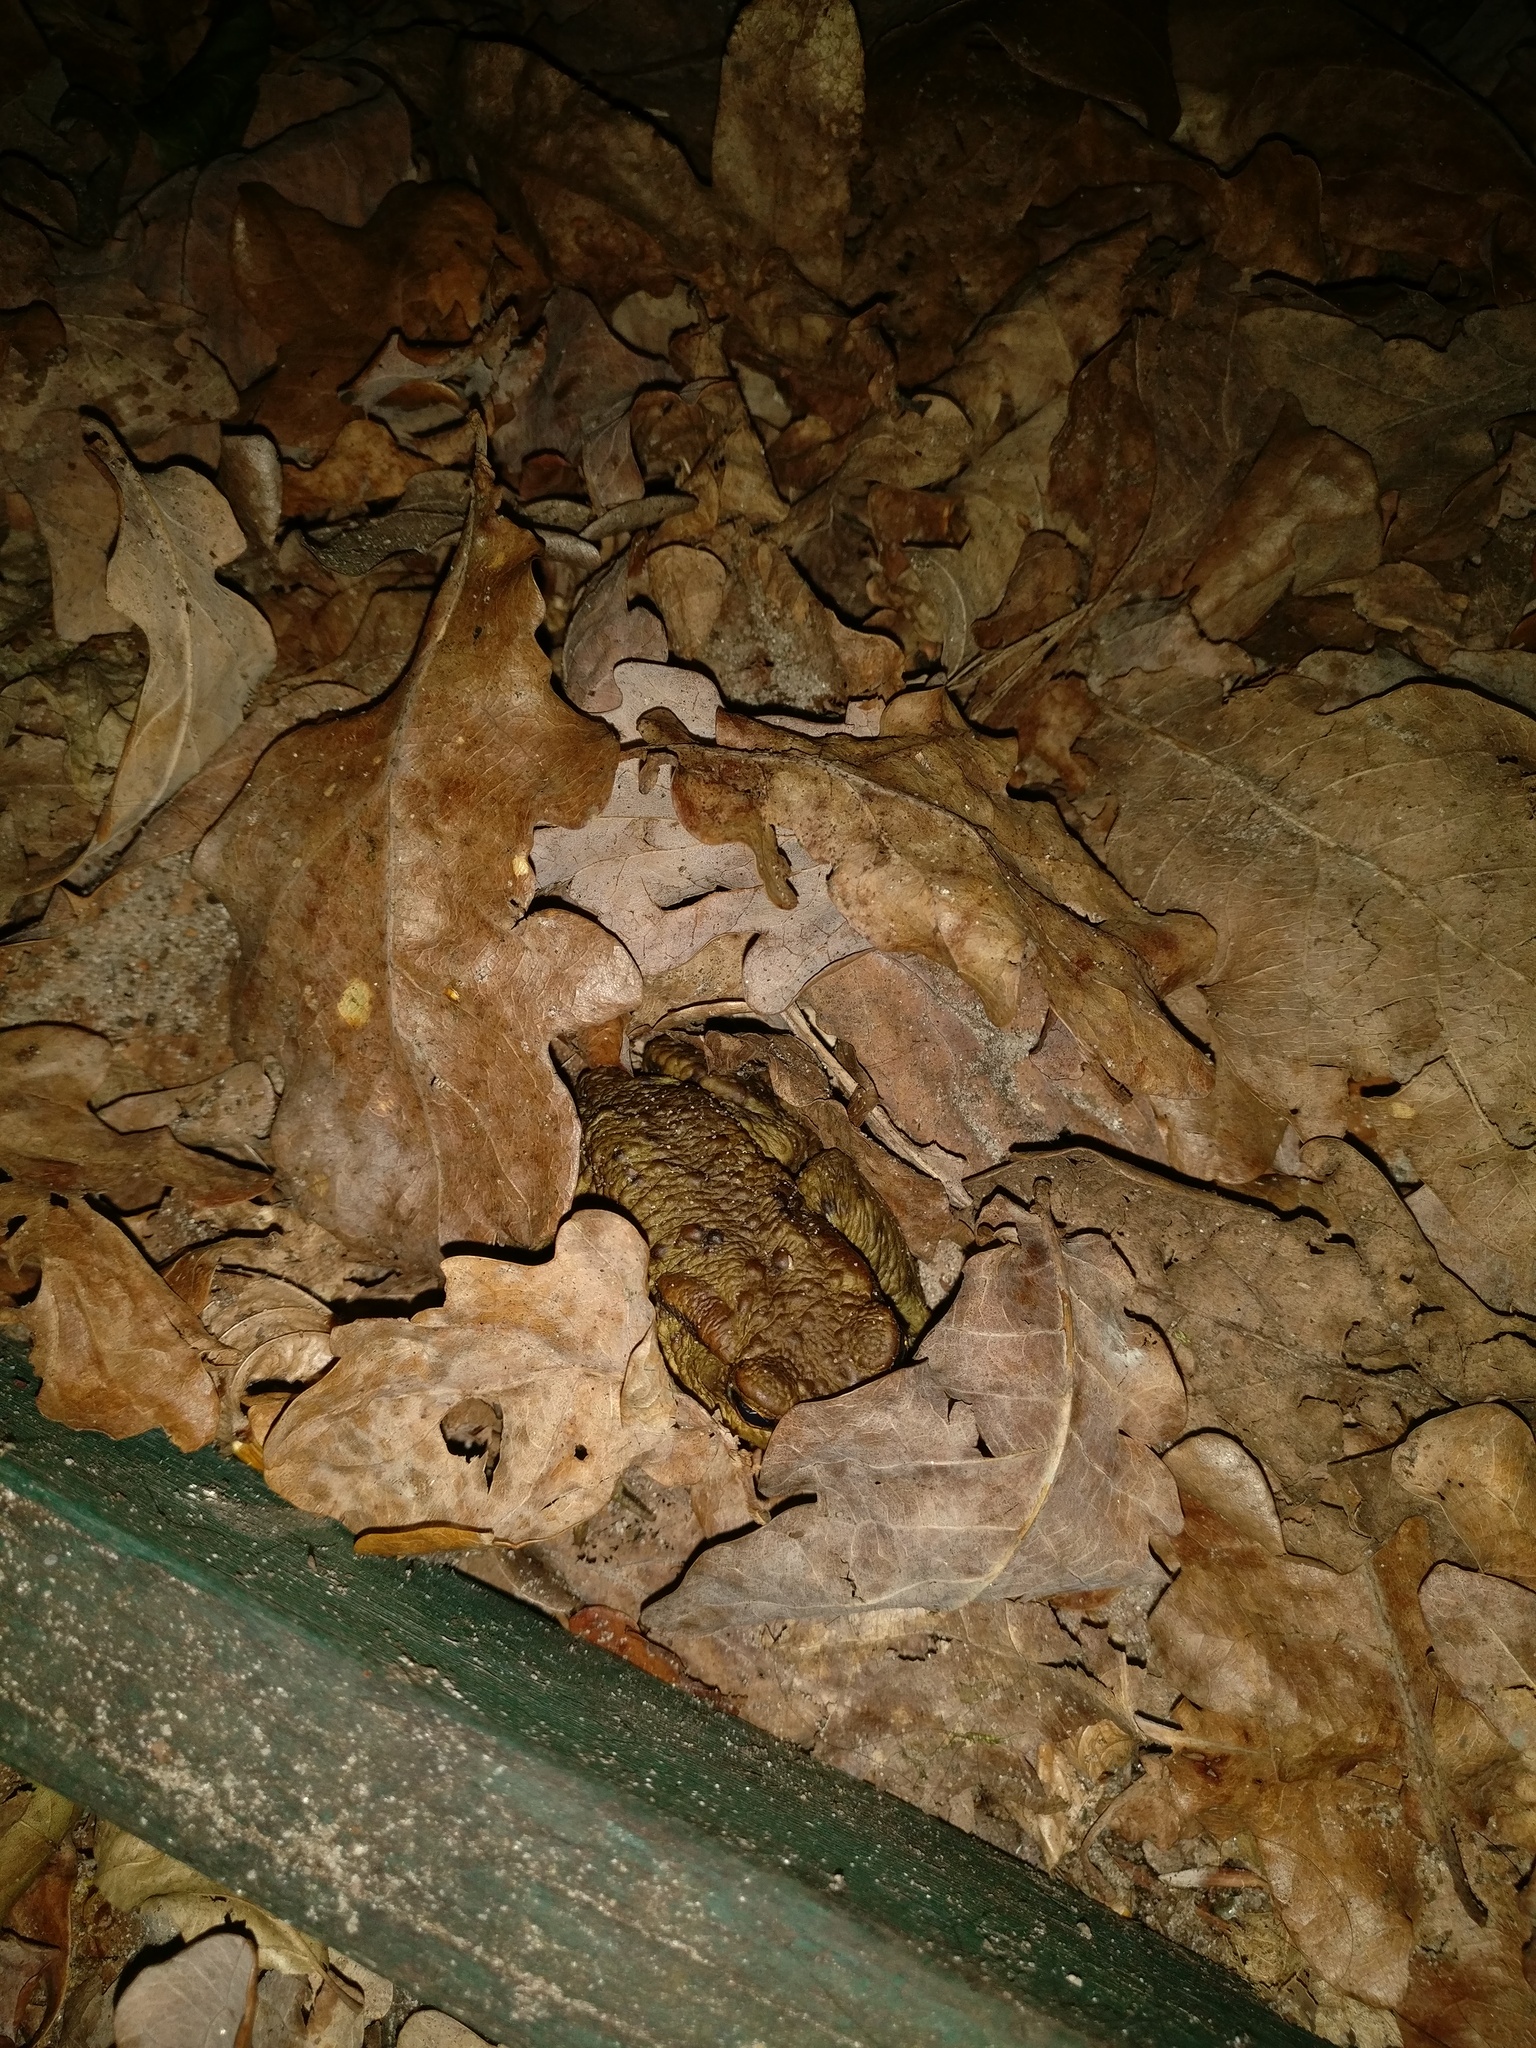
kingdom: Animalia
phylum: Chordata
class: Amphibia
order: Anura
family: Bufonidae
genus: Bufo
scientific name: Bufo bufo
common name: Common toad
